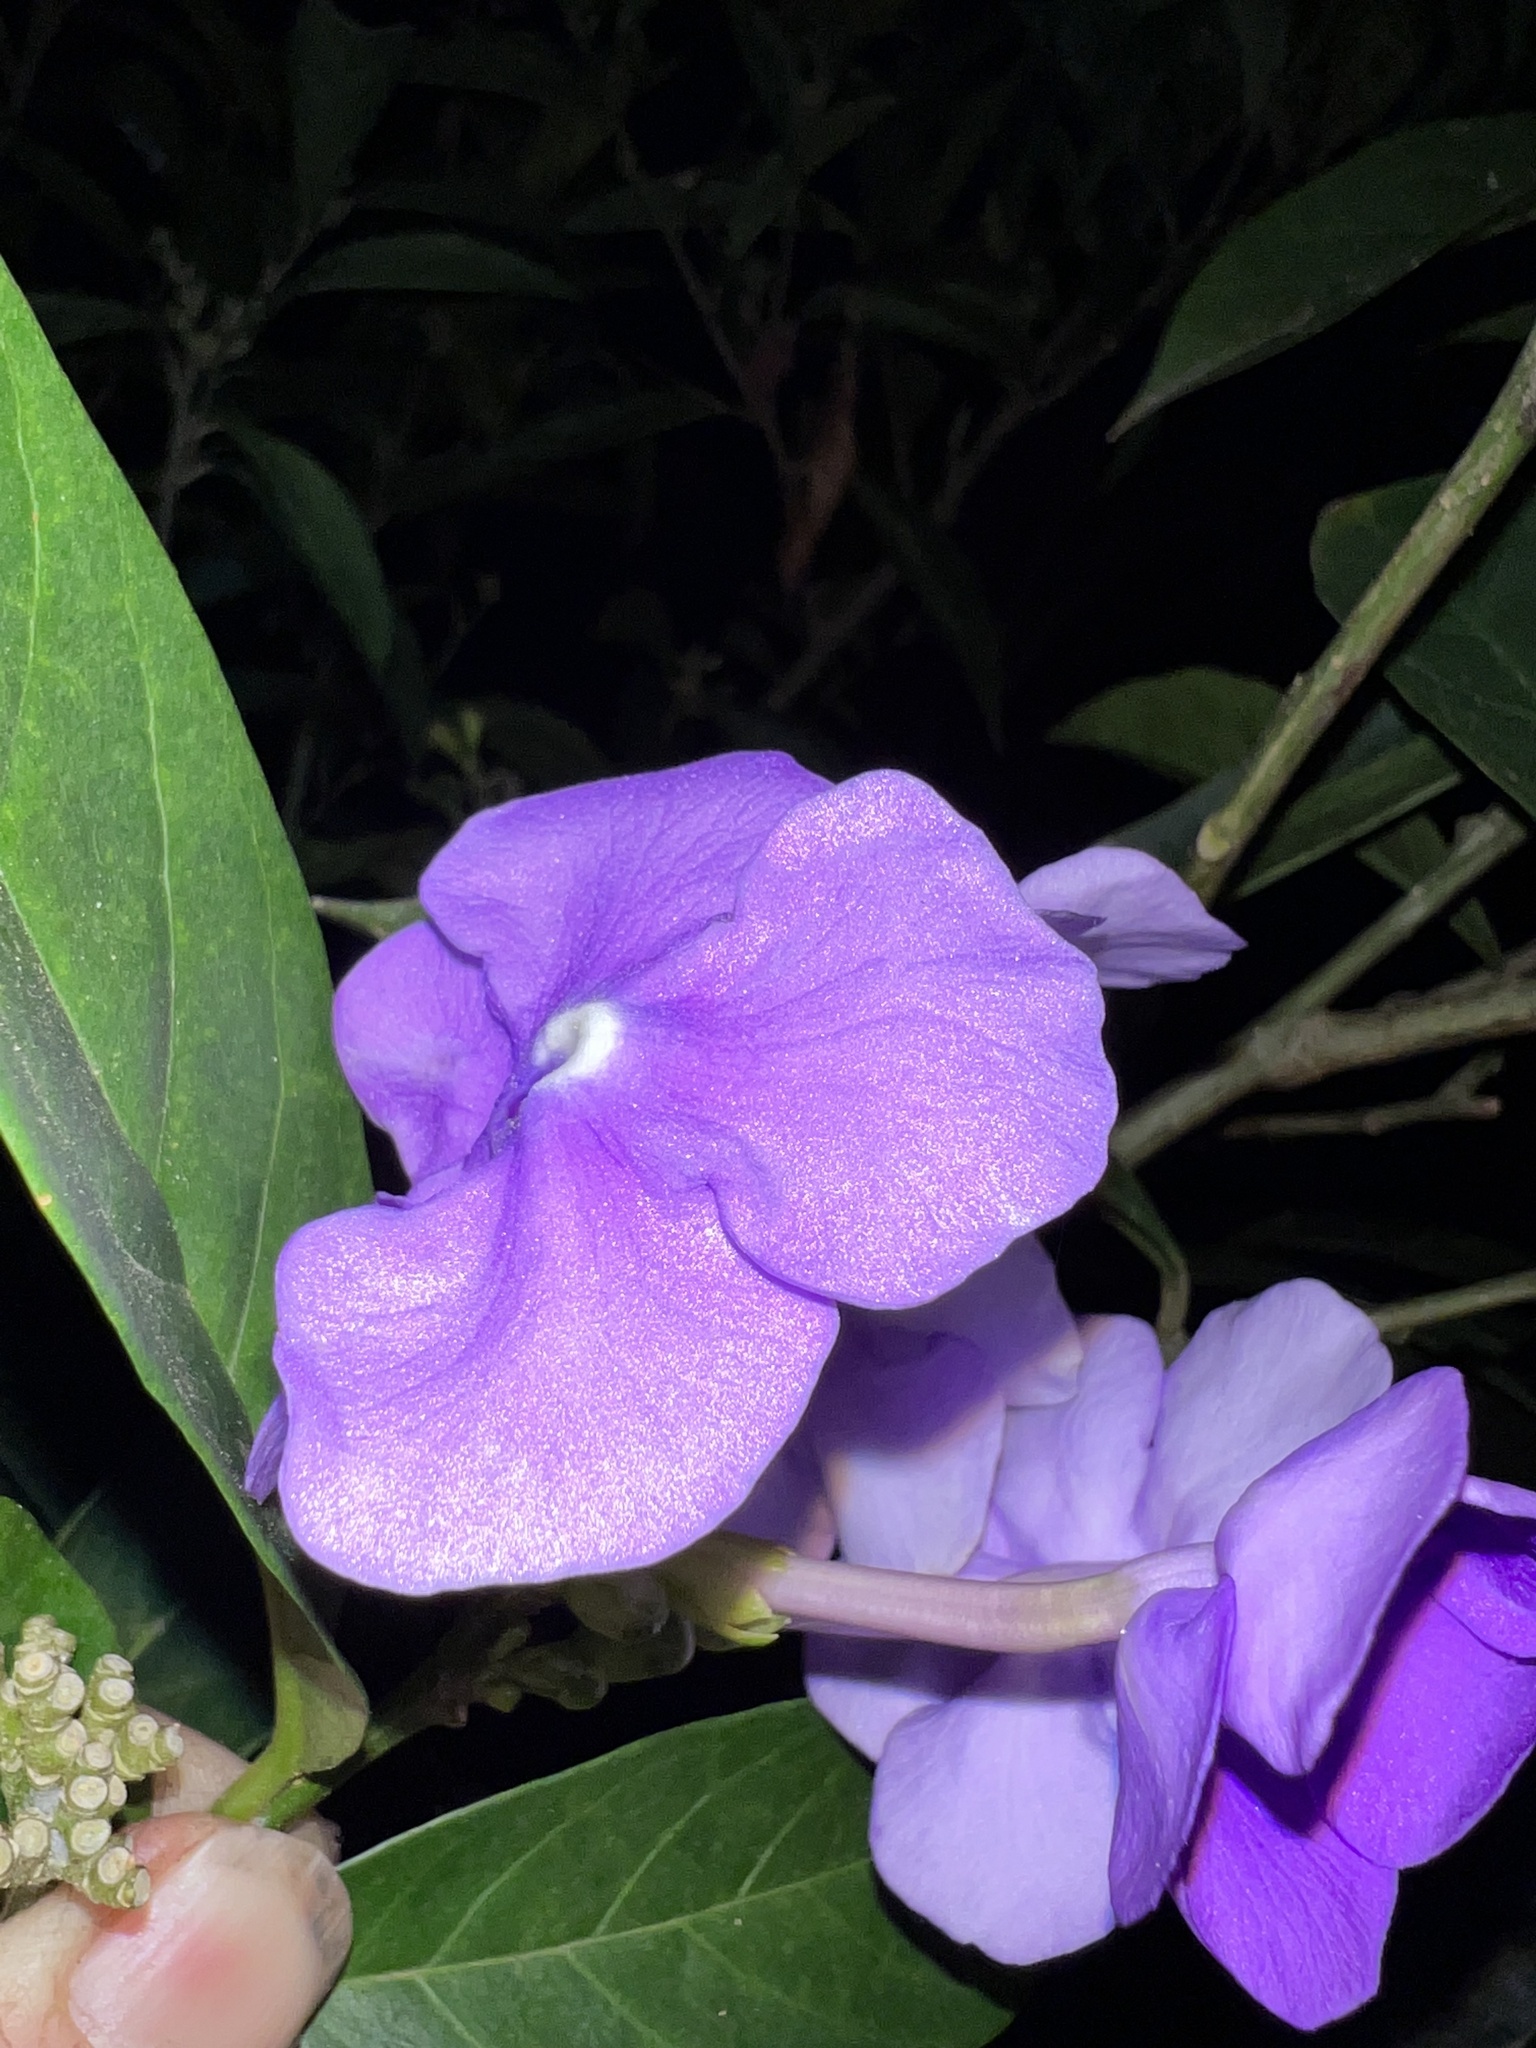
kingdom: Plantae
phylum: Tracheophyta
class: Magnoliopsida
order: Solanales
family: Solanaceae
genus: Brunfelsia
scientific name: Brunfelsia pauciflora
